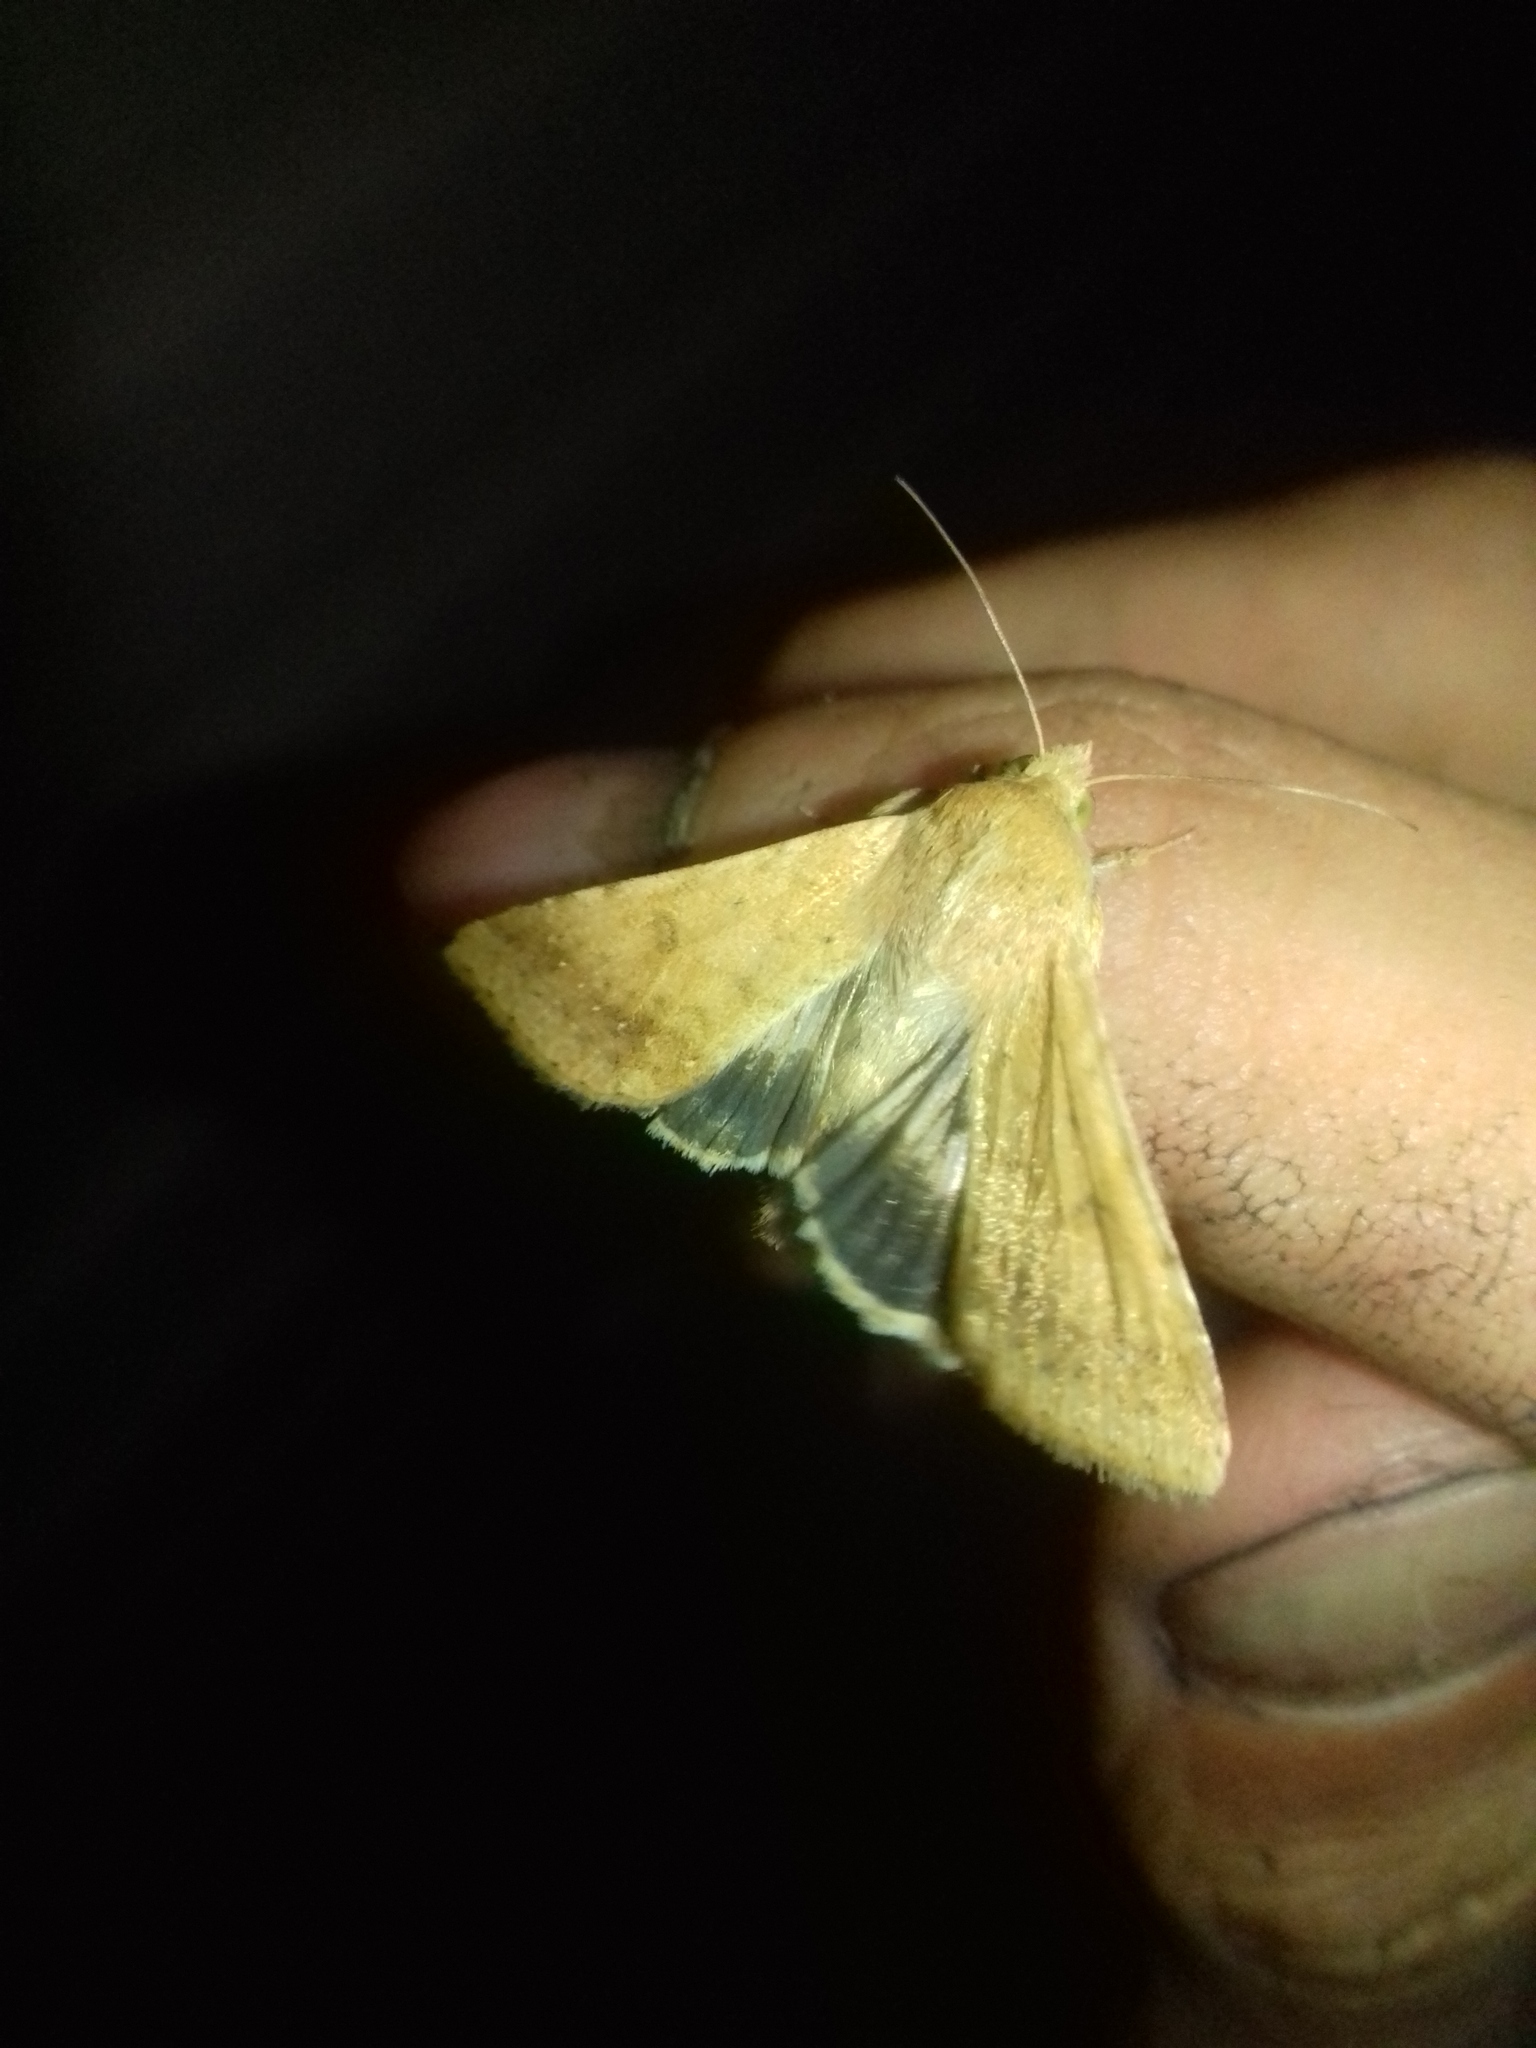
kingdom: Animalia
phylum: Arthropoda
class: Insecta
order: Lepidoptera
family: Noctuidae
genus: Helicoverpa
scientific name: Helicoverpa armigera
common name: Cotton bollworm
